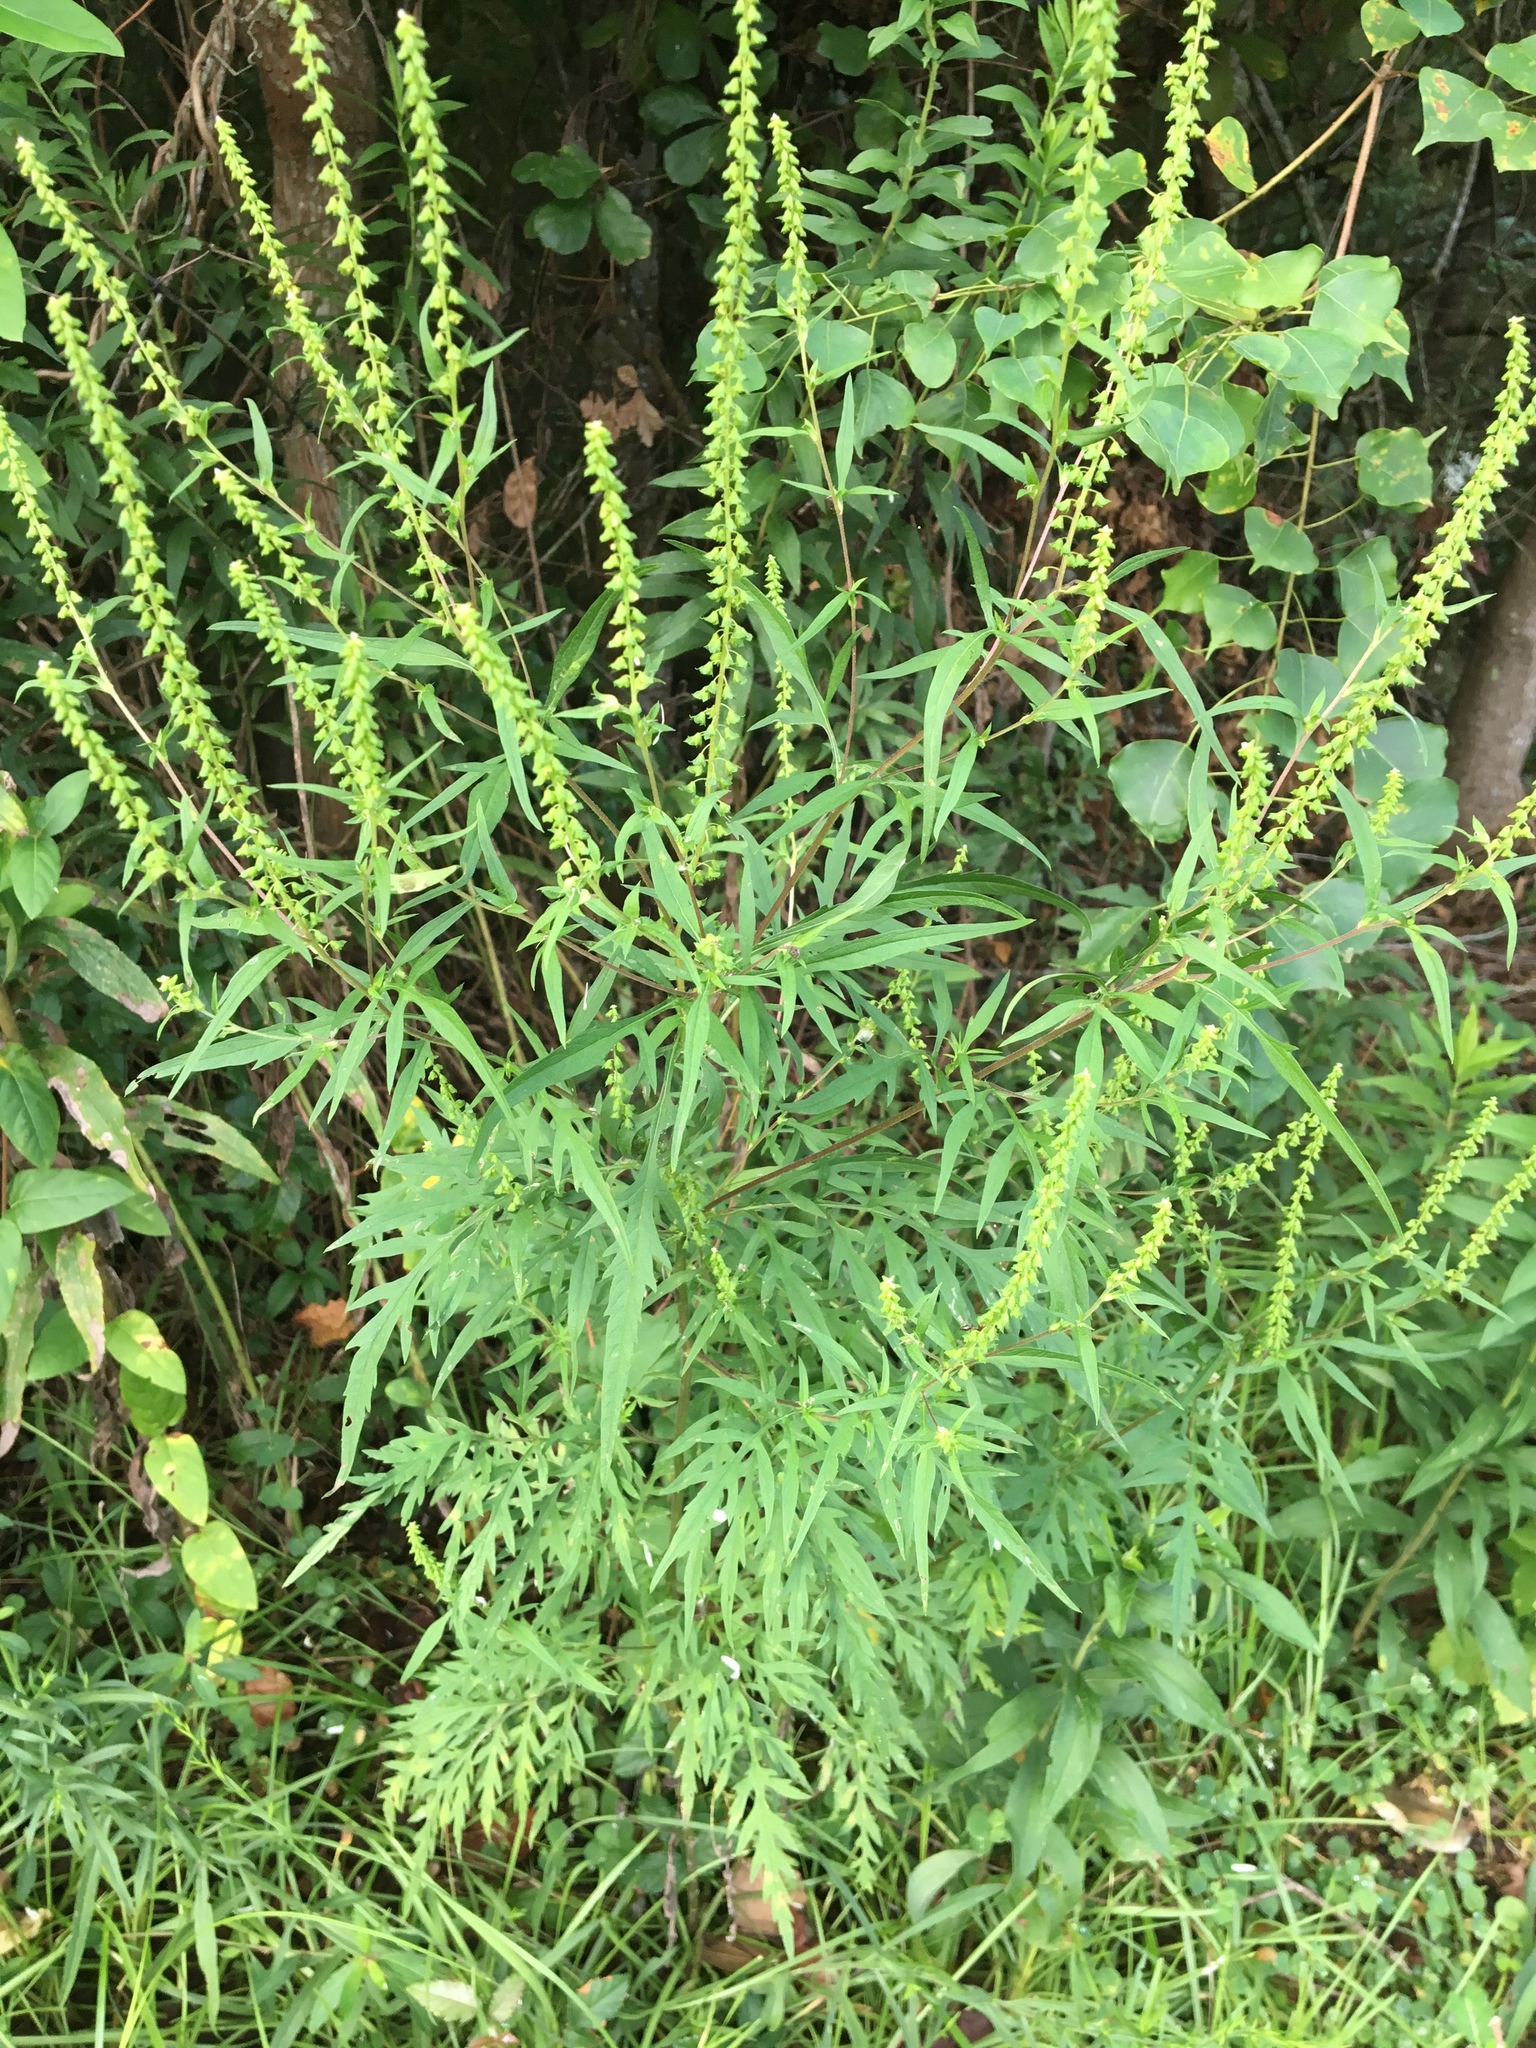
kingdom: Plantae
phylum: Tracheophyta
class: Magnoliopsida
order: Asterales
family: Asteraceae
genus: Ambrosia
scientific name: Ambrosia artemisiifolia
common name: Annual ragweed
